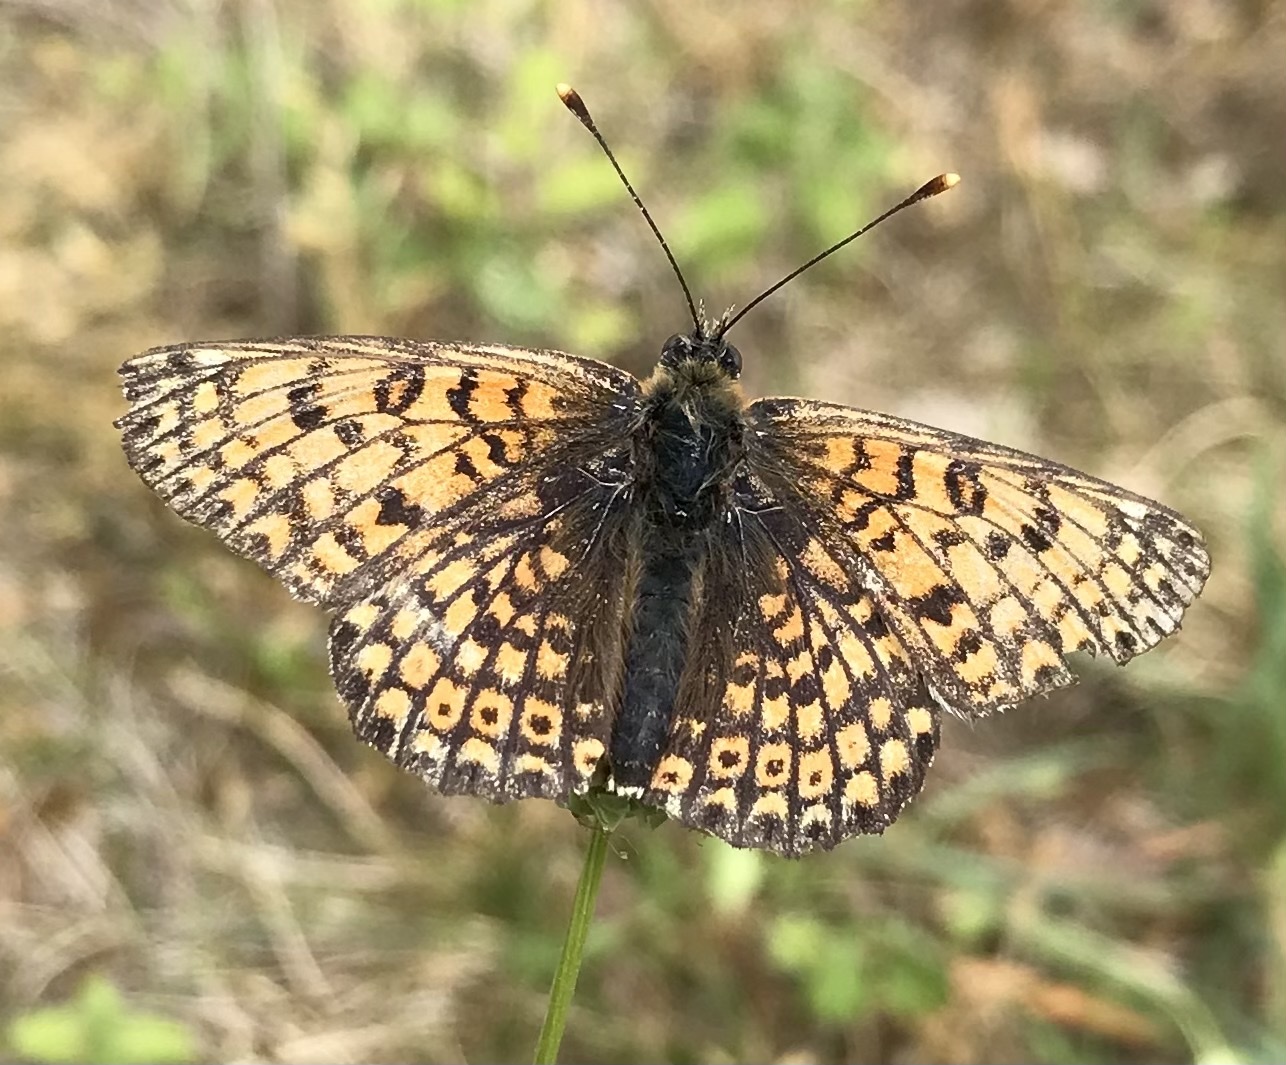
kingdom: Animalia
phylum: Arthropoda
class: Insecta
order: Lepidoptera
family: Nymphalidae
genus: Melitaea
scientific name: Melitaea cinxia
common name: Glanville fritillary
